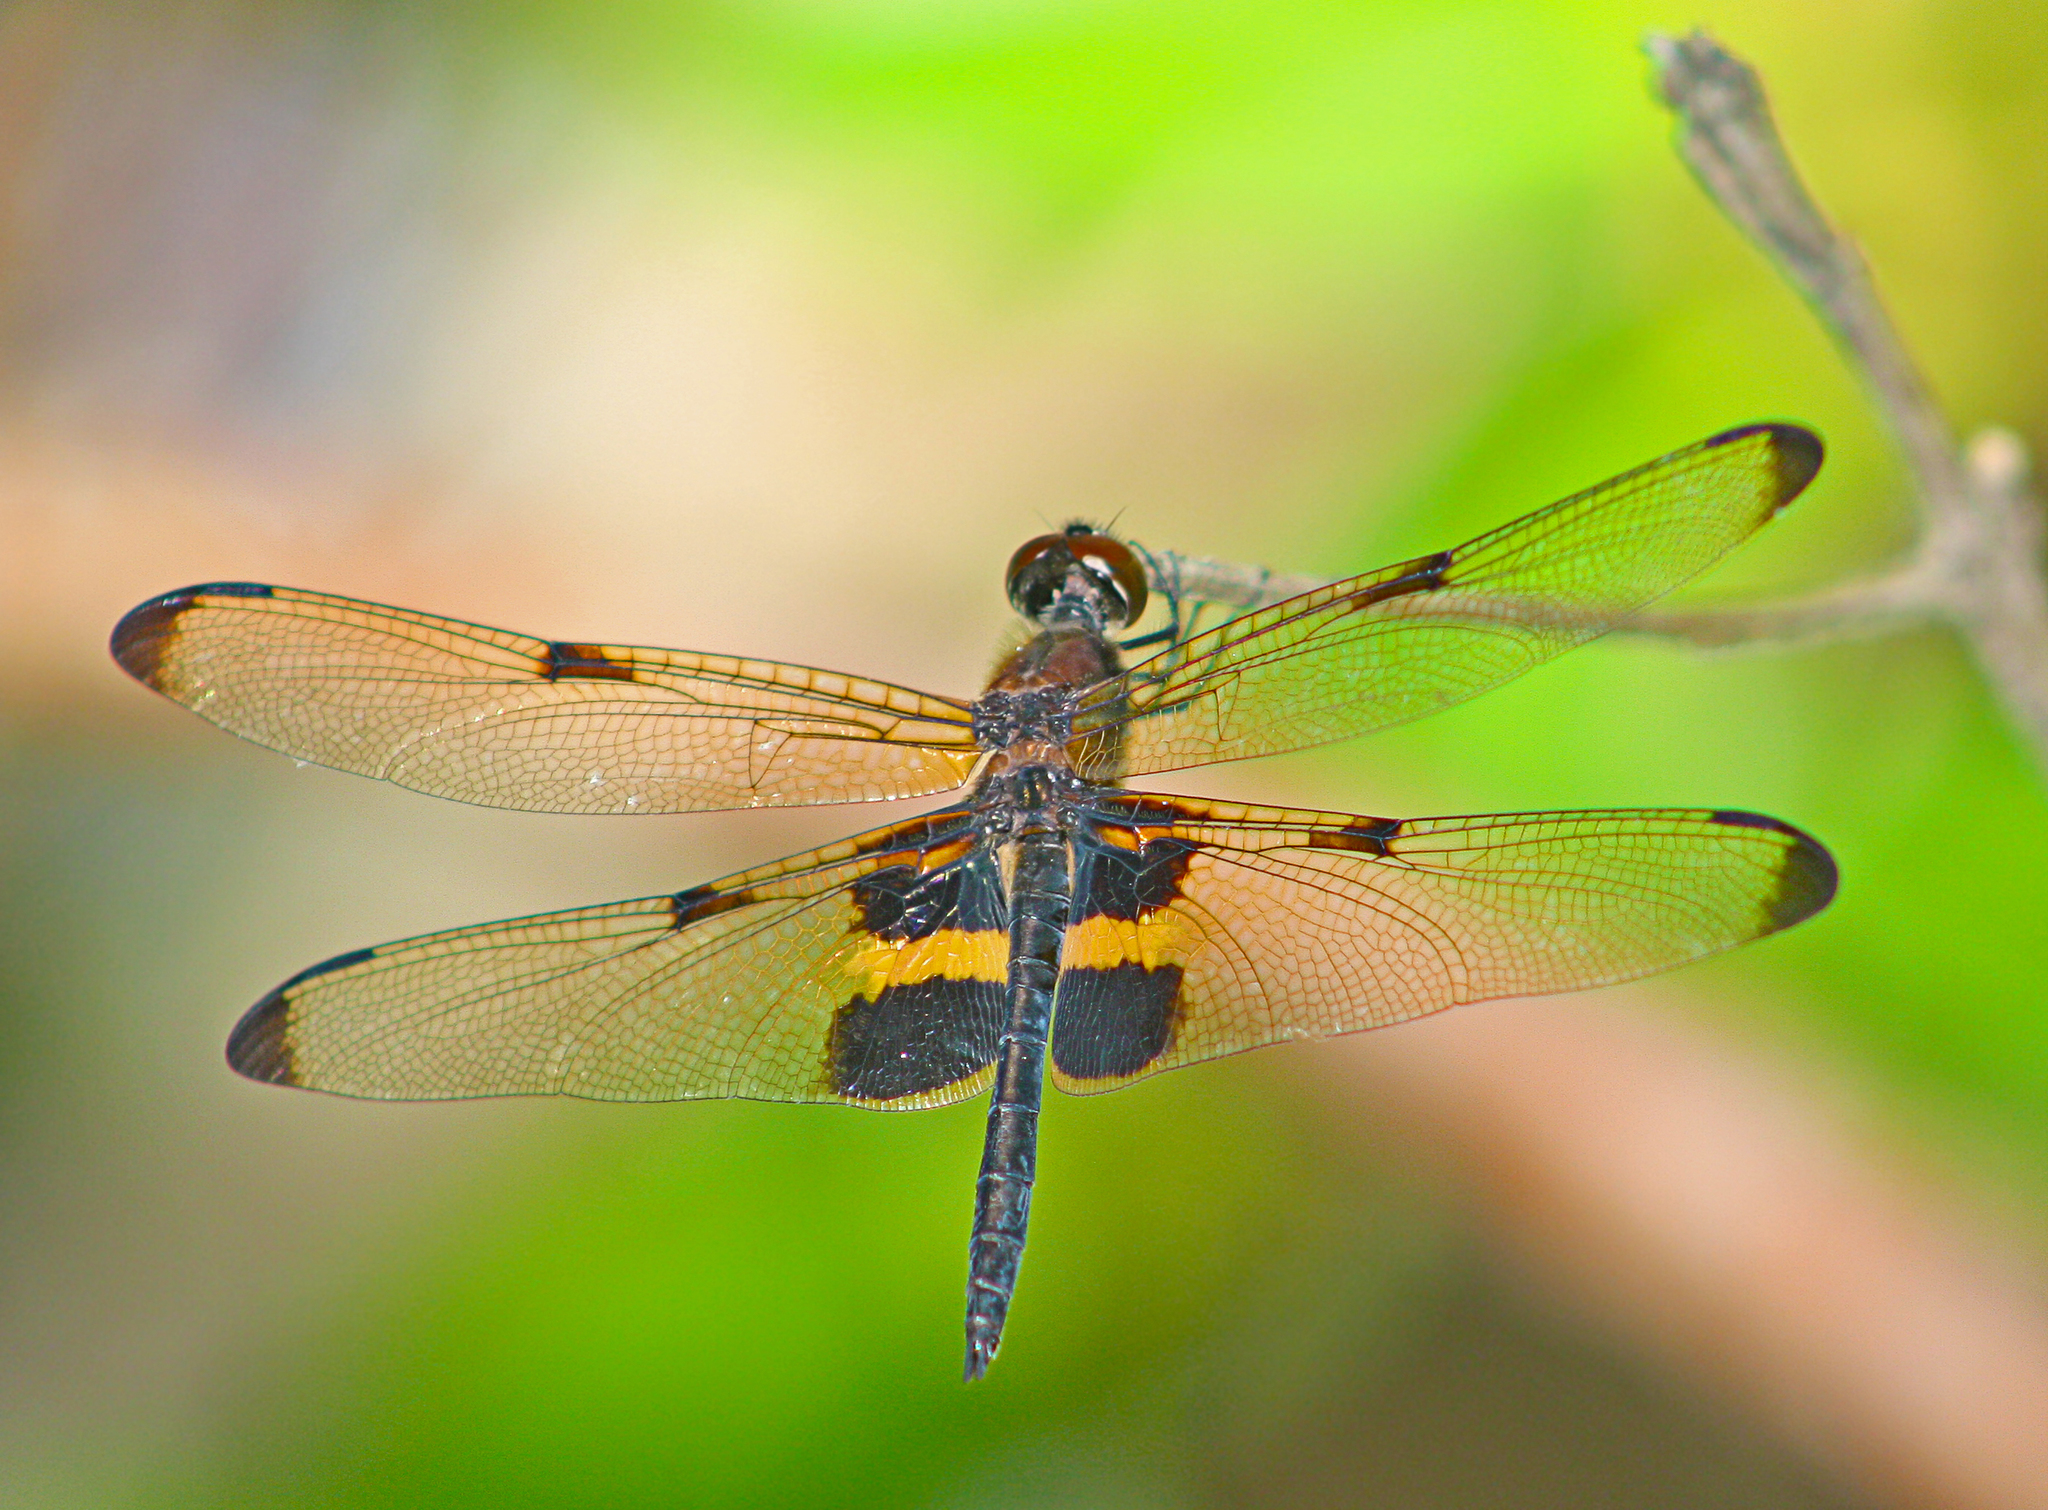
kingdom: Animalia
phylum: Arthropoda
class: Insecta
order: Odonata
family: Libellulidae
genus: Rhyothemis
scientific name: Rhyothemis phyllis
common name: Yellow-barred flutterer
